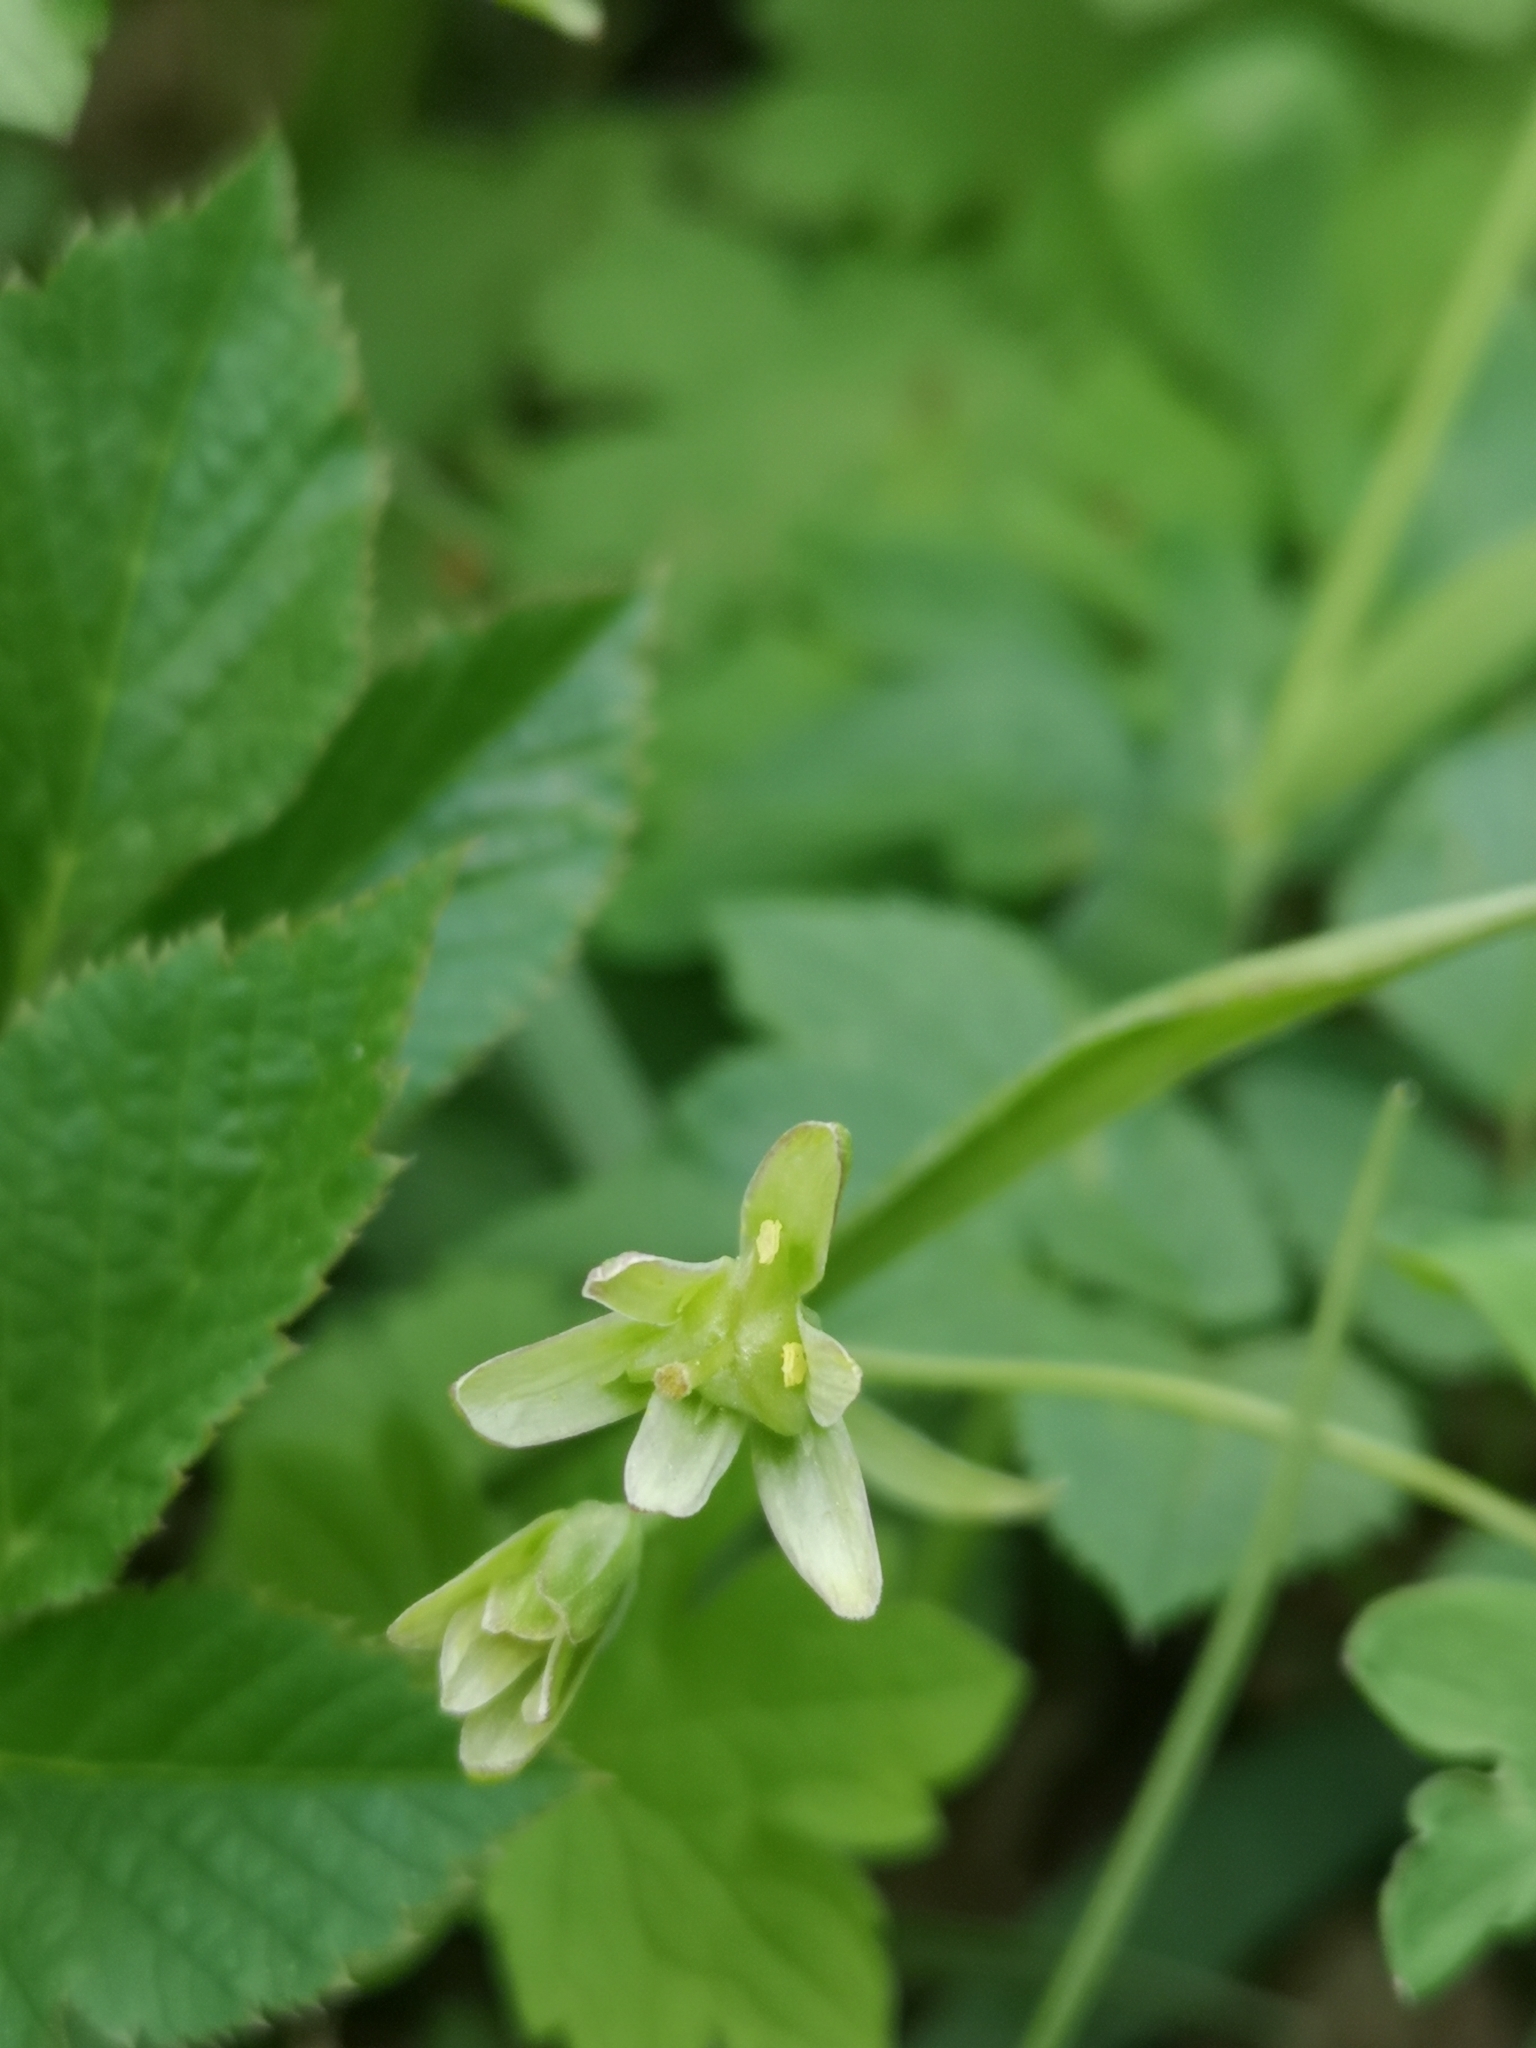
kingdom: Plantae
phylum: Tracheophyta
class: Magnoliopsida
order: Cucurbitales
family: Cucurbitaceae
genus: Bryonia
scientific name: Bryonia cretica
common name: Cretan bryony
